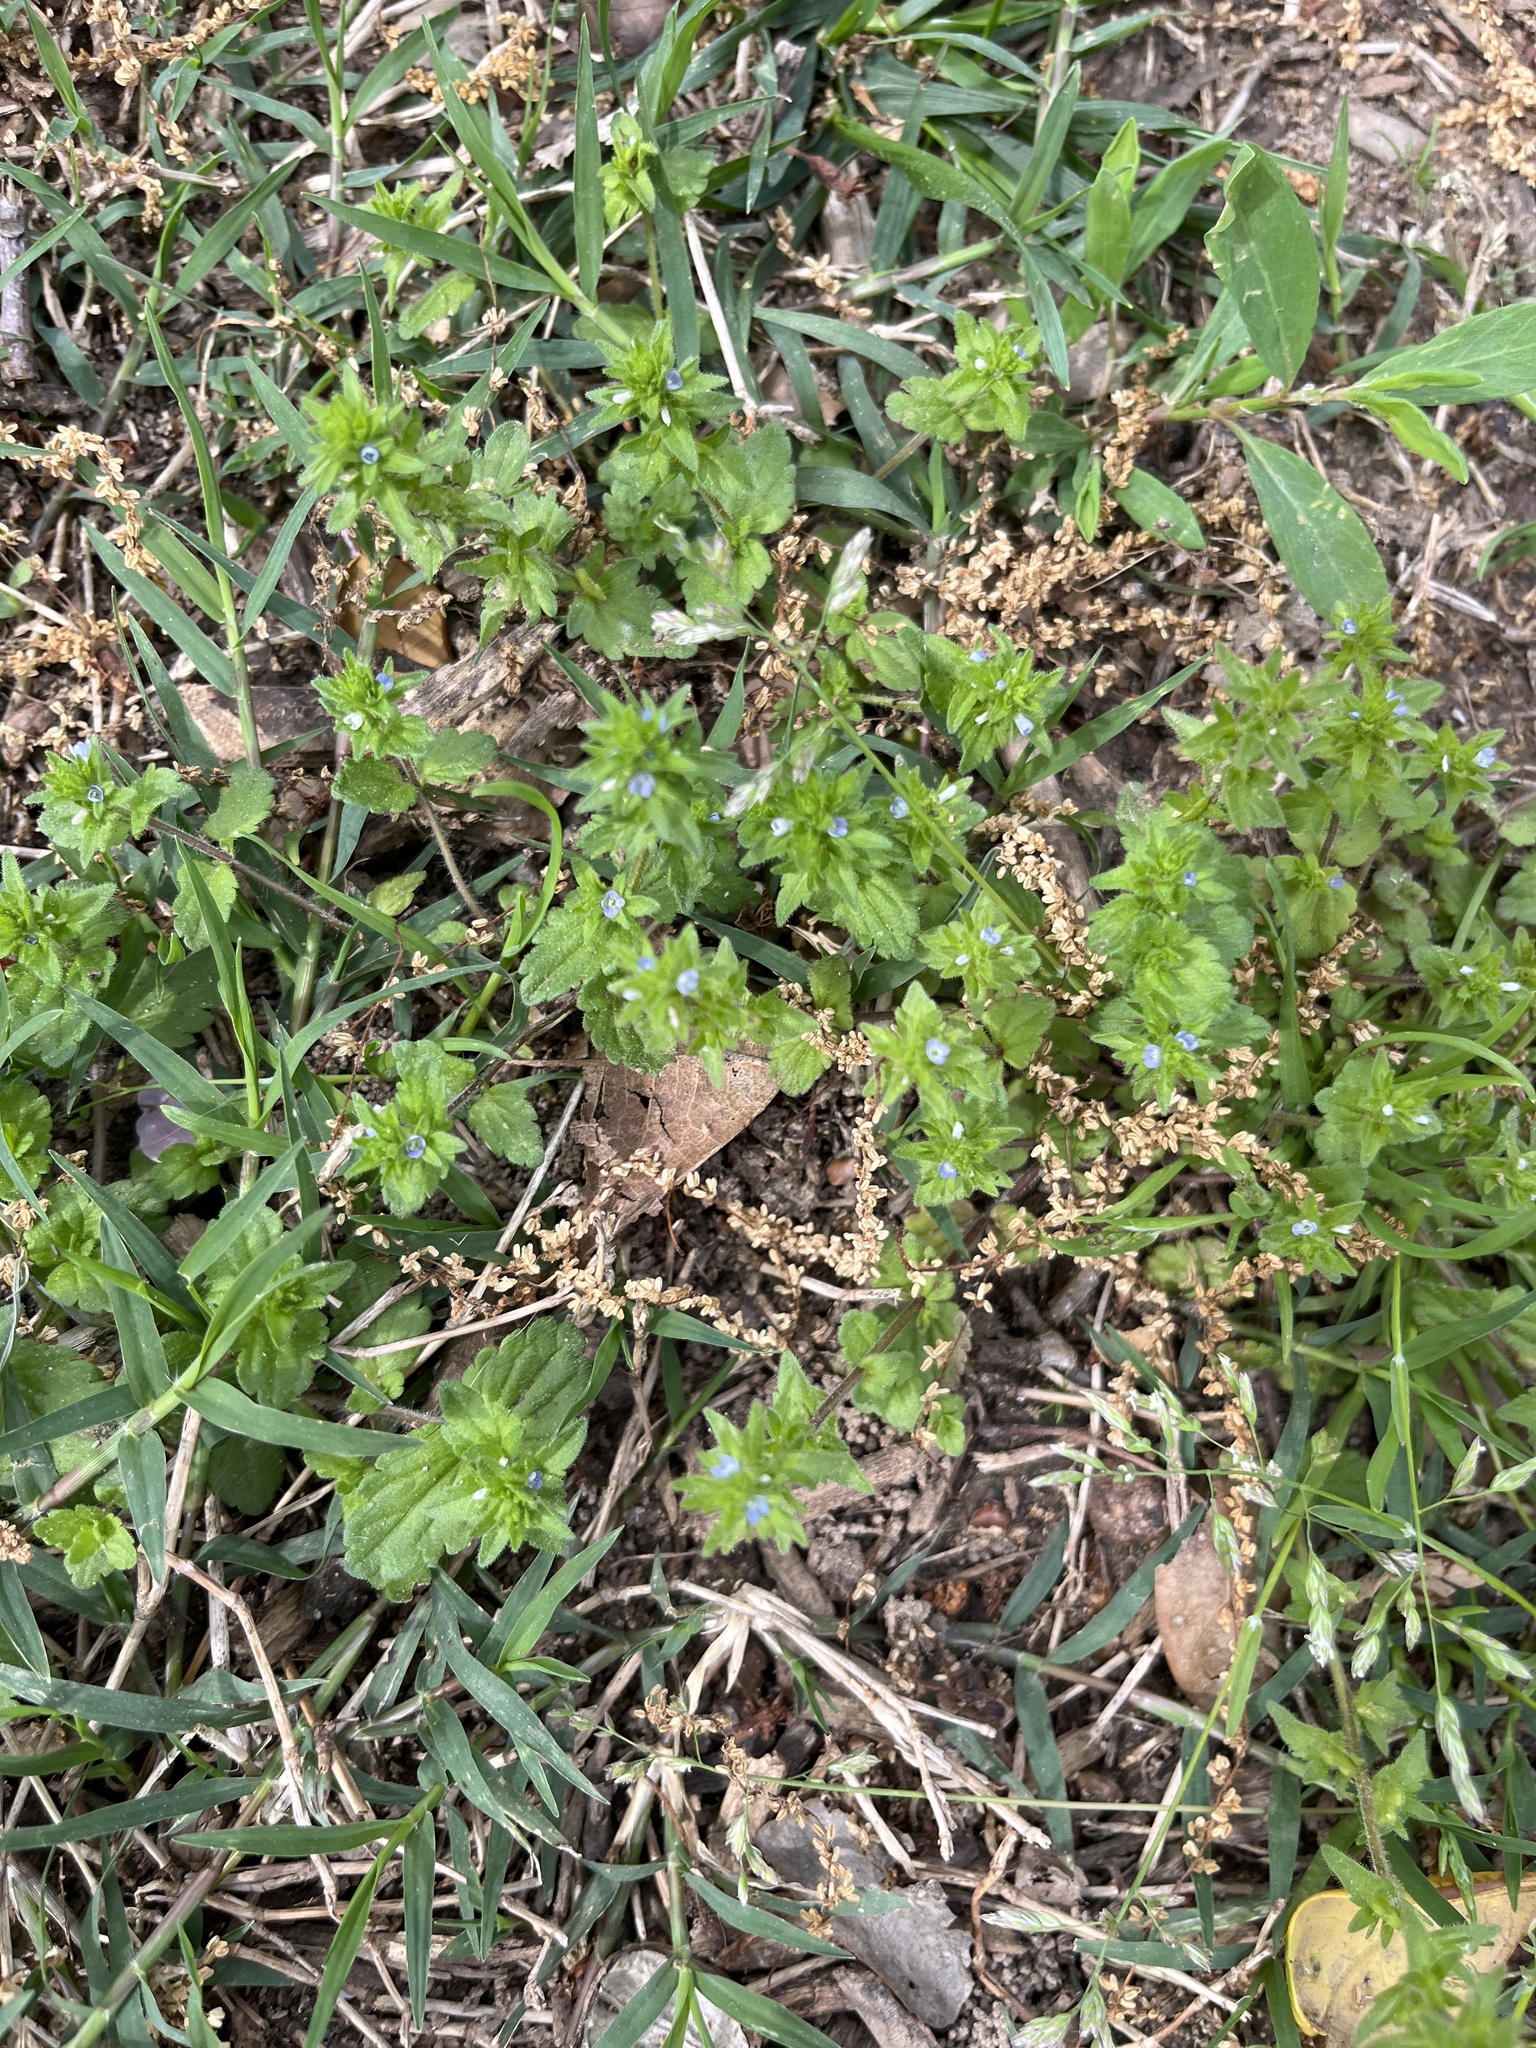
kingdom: Plantae
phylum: Tracheophyta
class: Magnoliopsida
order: Gentianales
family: Rubiaceae
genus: Sherardia
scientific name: Sherardia arvensis
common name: Field madder
